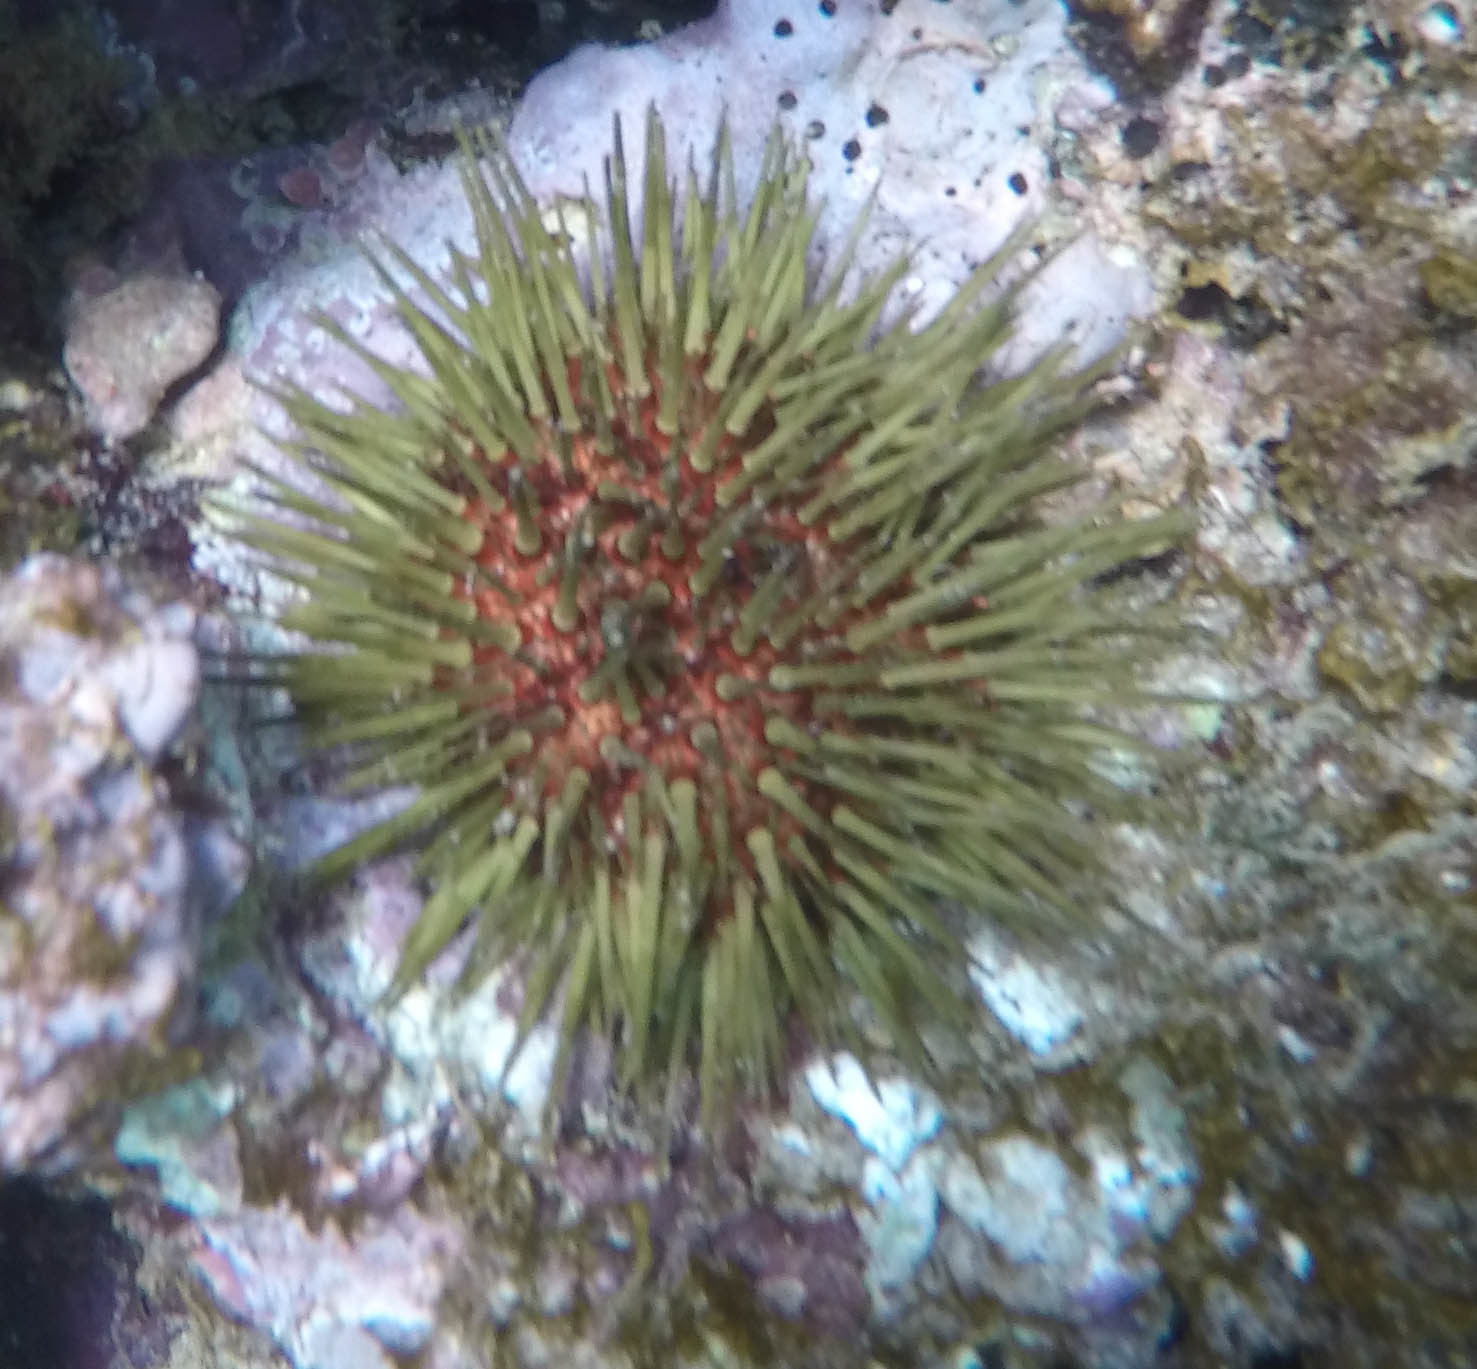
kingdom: Animalia
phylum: Echinodermata
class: Echinoidea
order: Camarodonta
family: Parechinidae
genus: Paracentrotus
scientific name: Paracentrotus lividus
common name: Purple sea urchin
